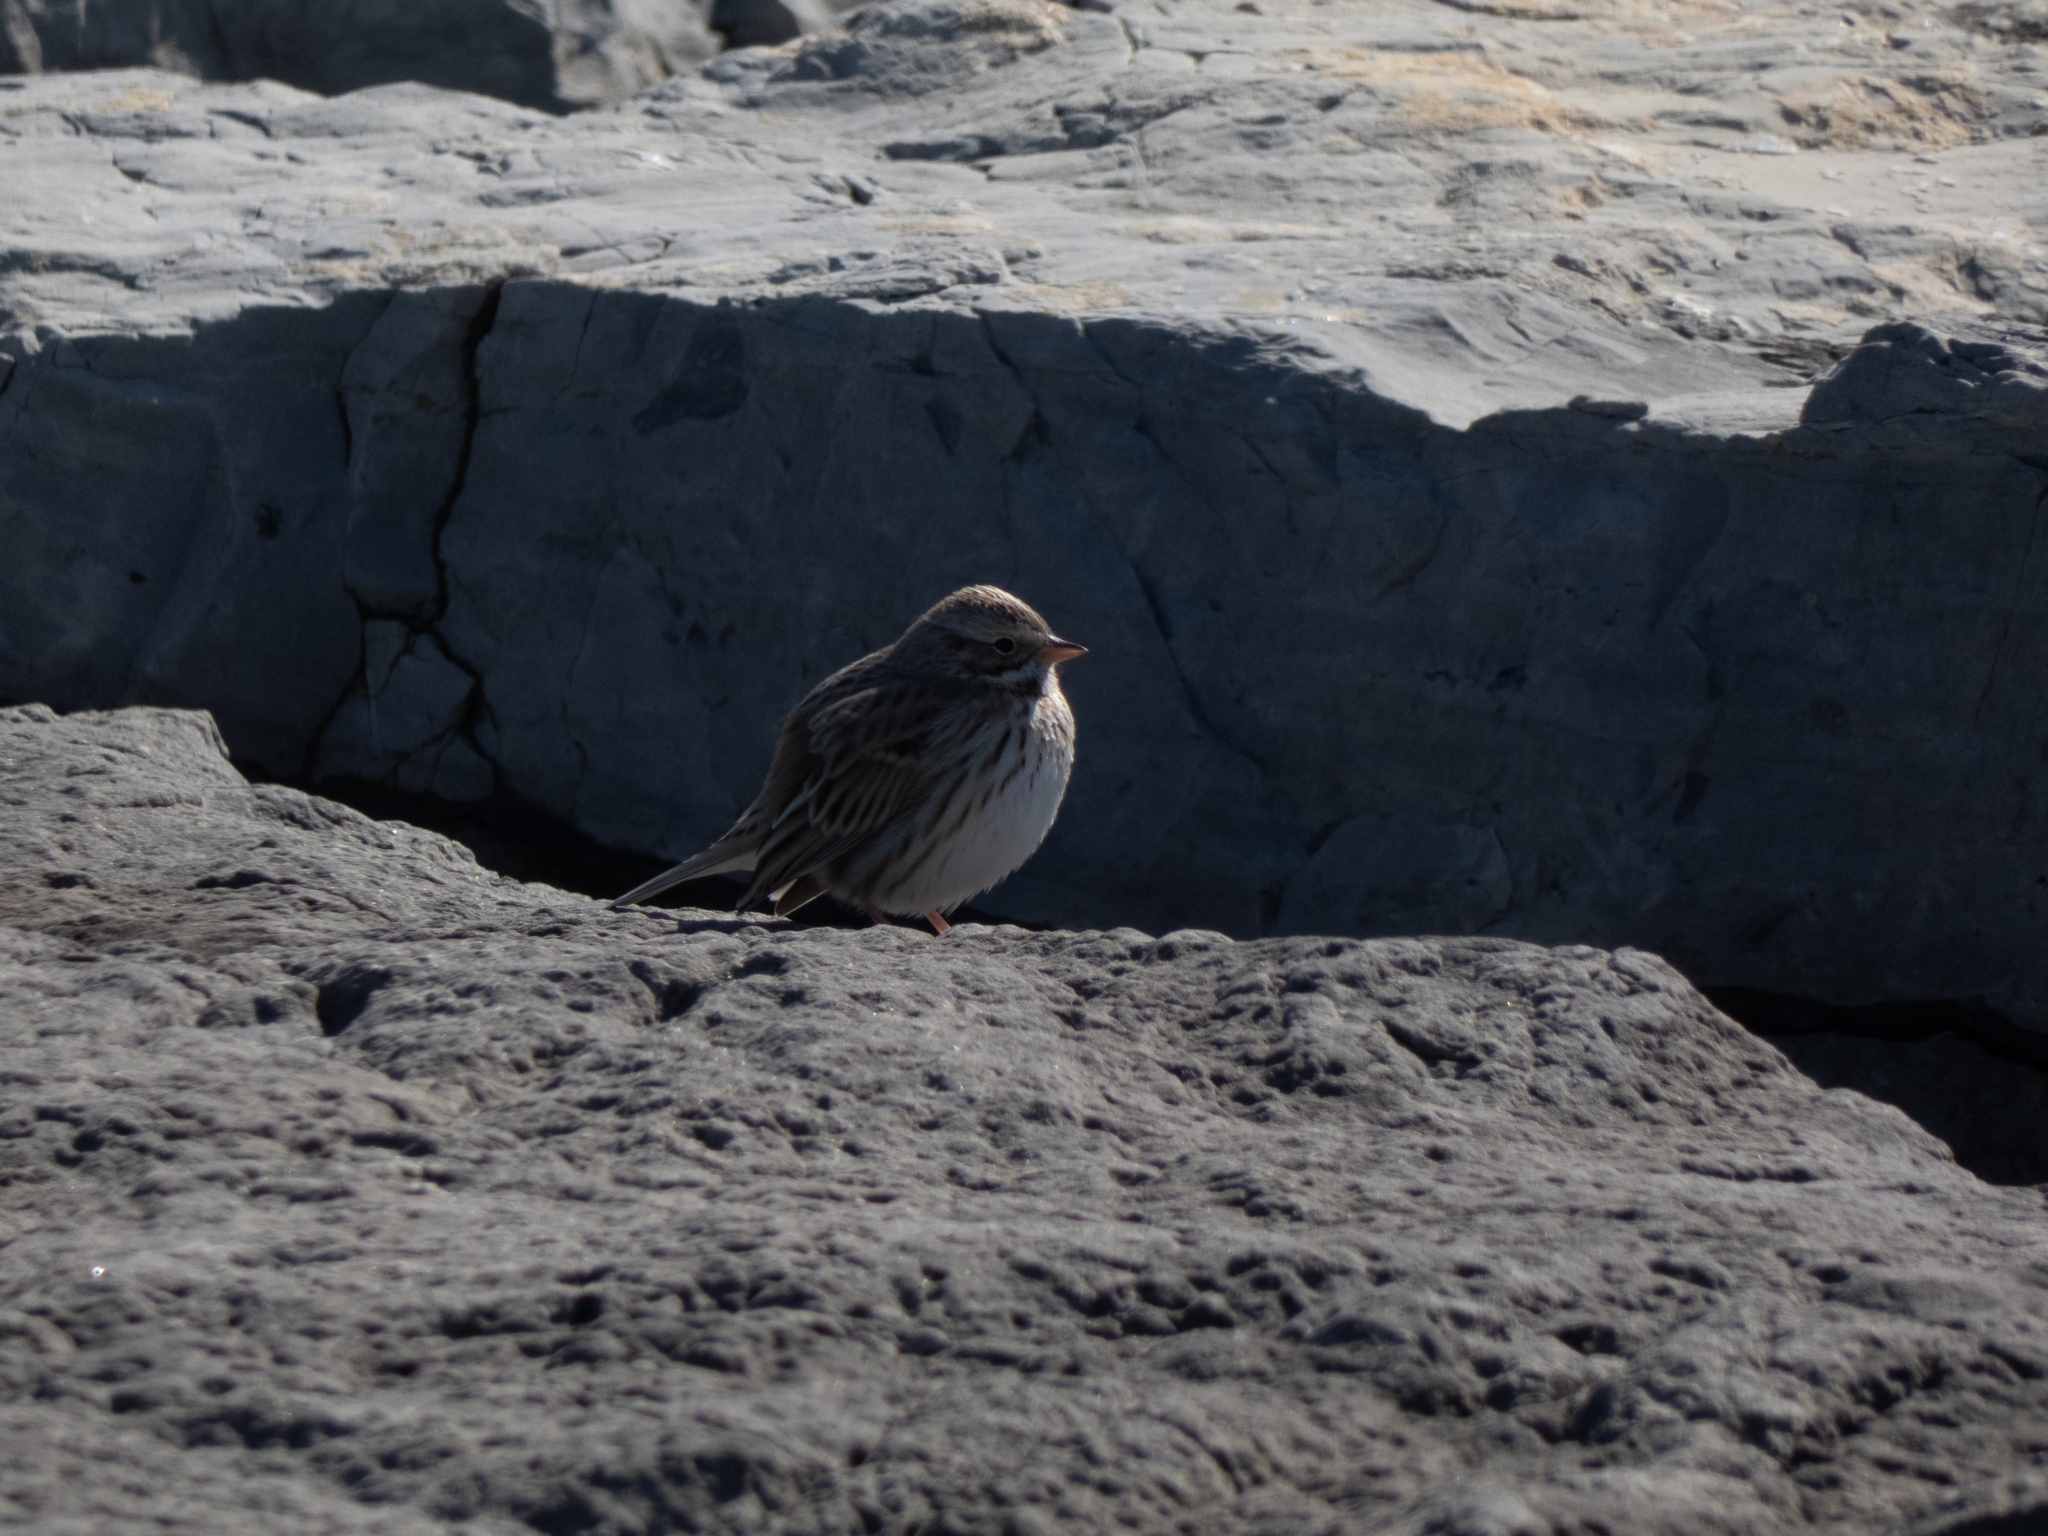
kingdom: Animalia
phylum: Chordata
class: Aves
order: Passeriformes
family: Passerellidae
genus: Passerculus
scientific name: Passerculus sandwichensis
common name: Savannah sparrow
